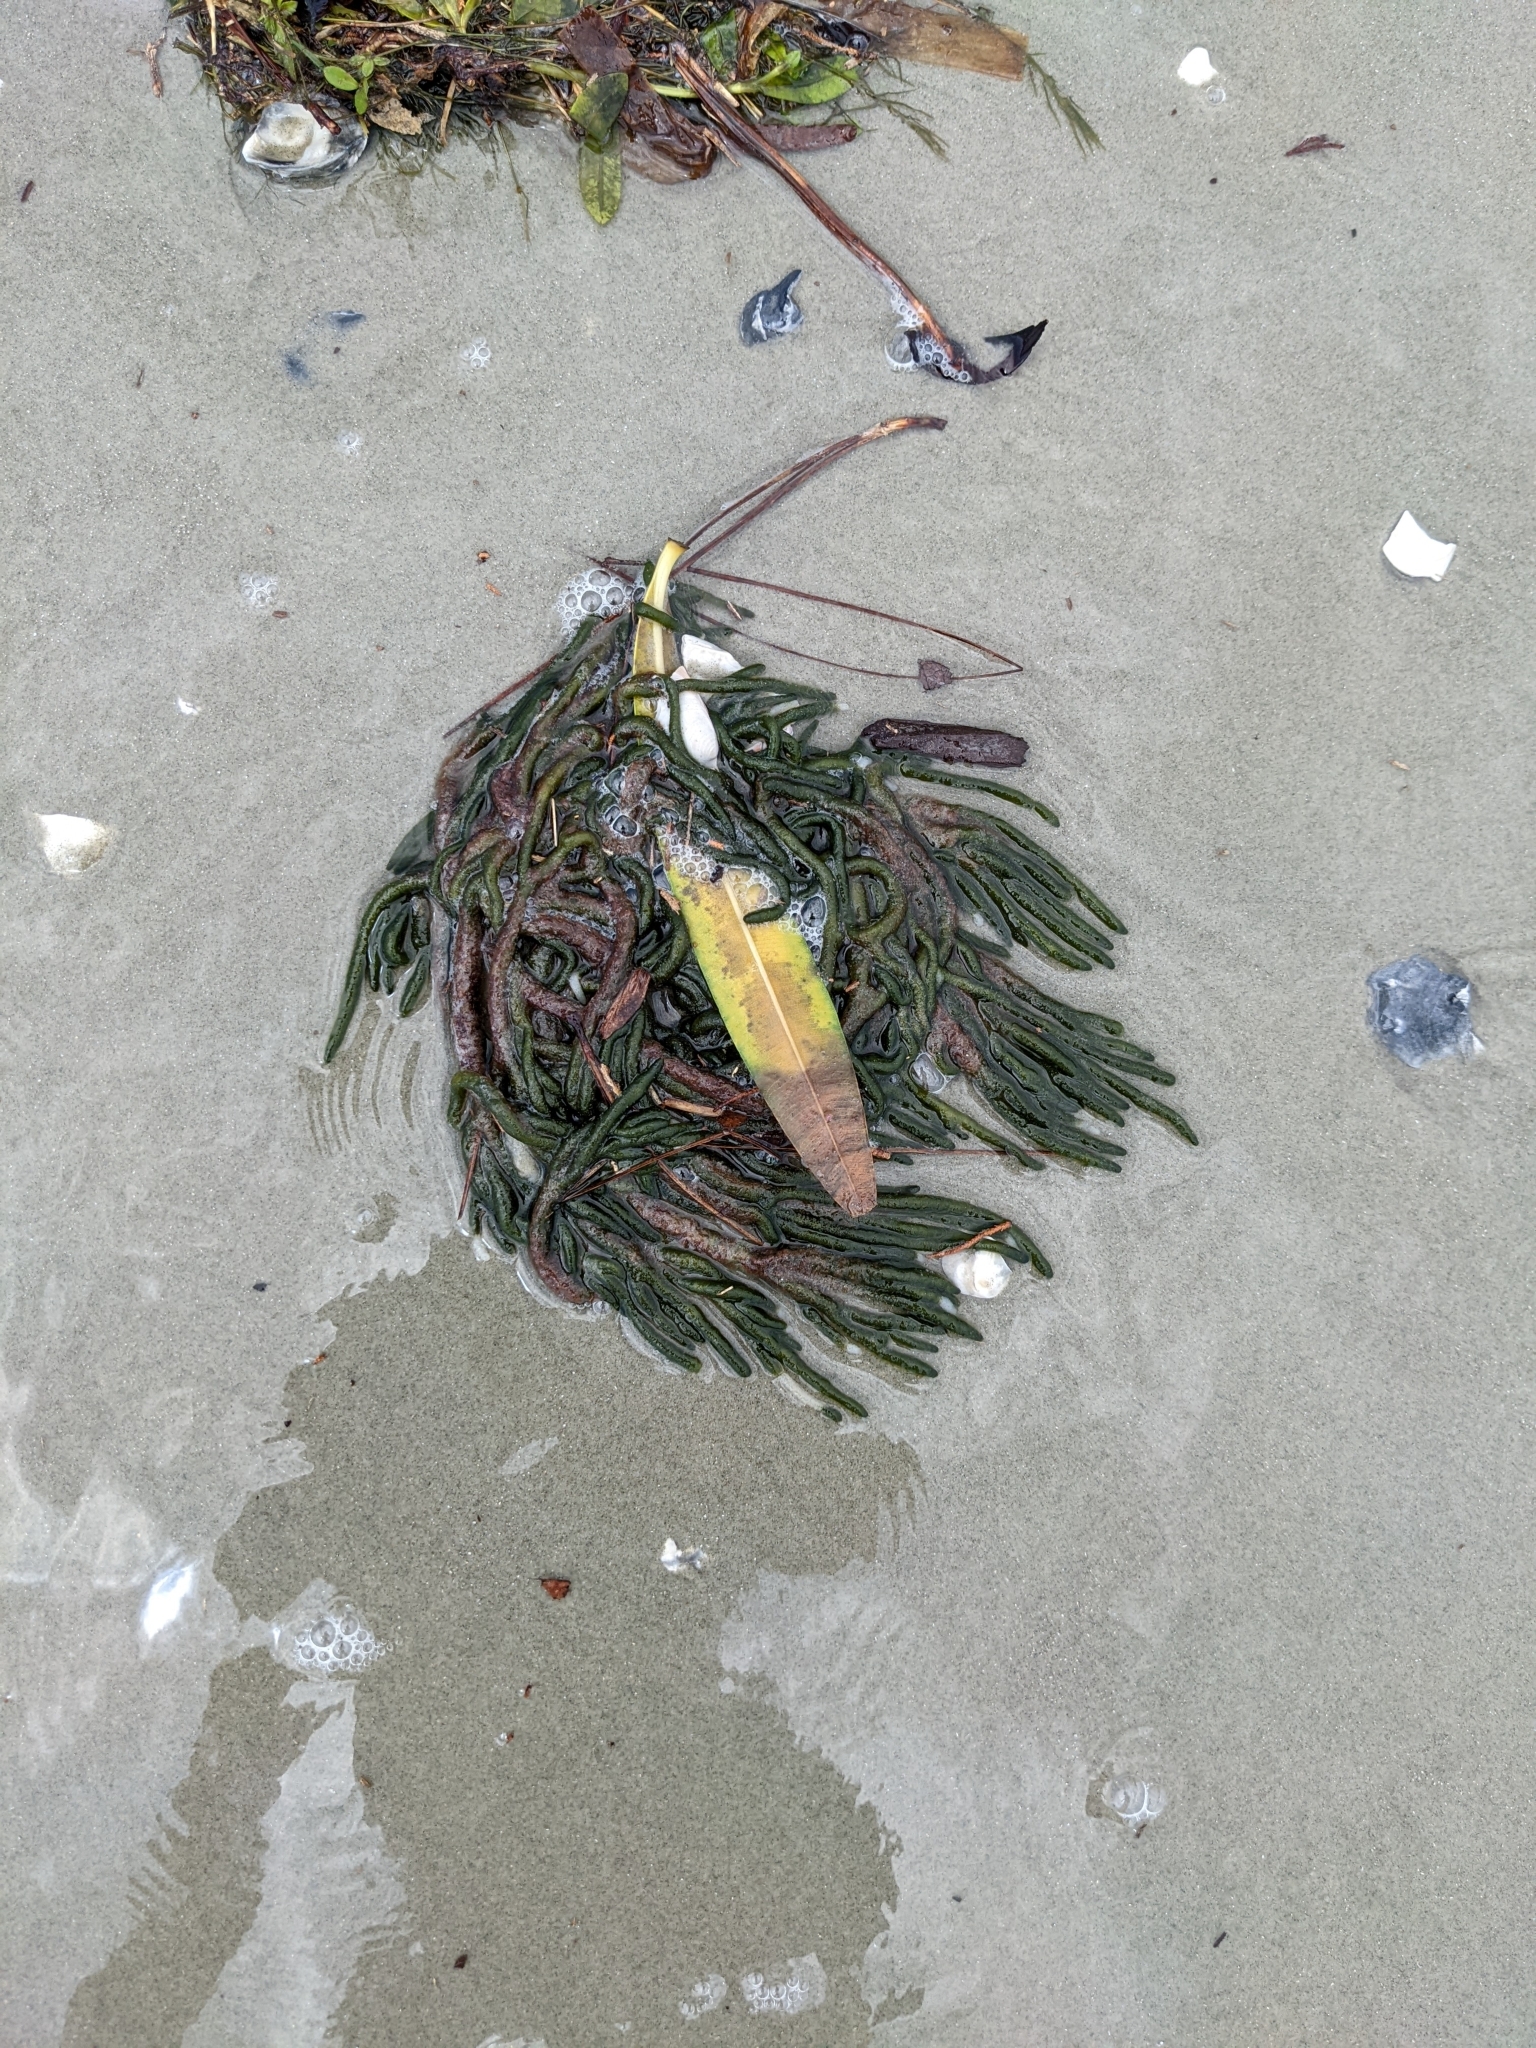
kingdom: Plantae
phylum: Chlorophyta
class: Ulvophyceae
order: Bryopsidales
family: Codiaceae
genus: Codium
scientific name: Codium fragile
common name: Dead man's fingers
